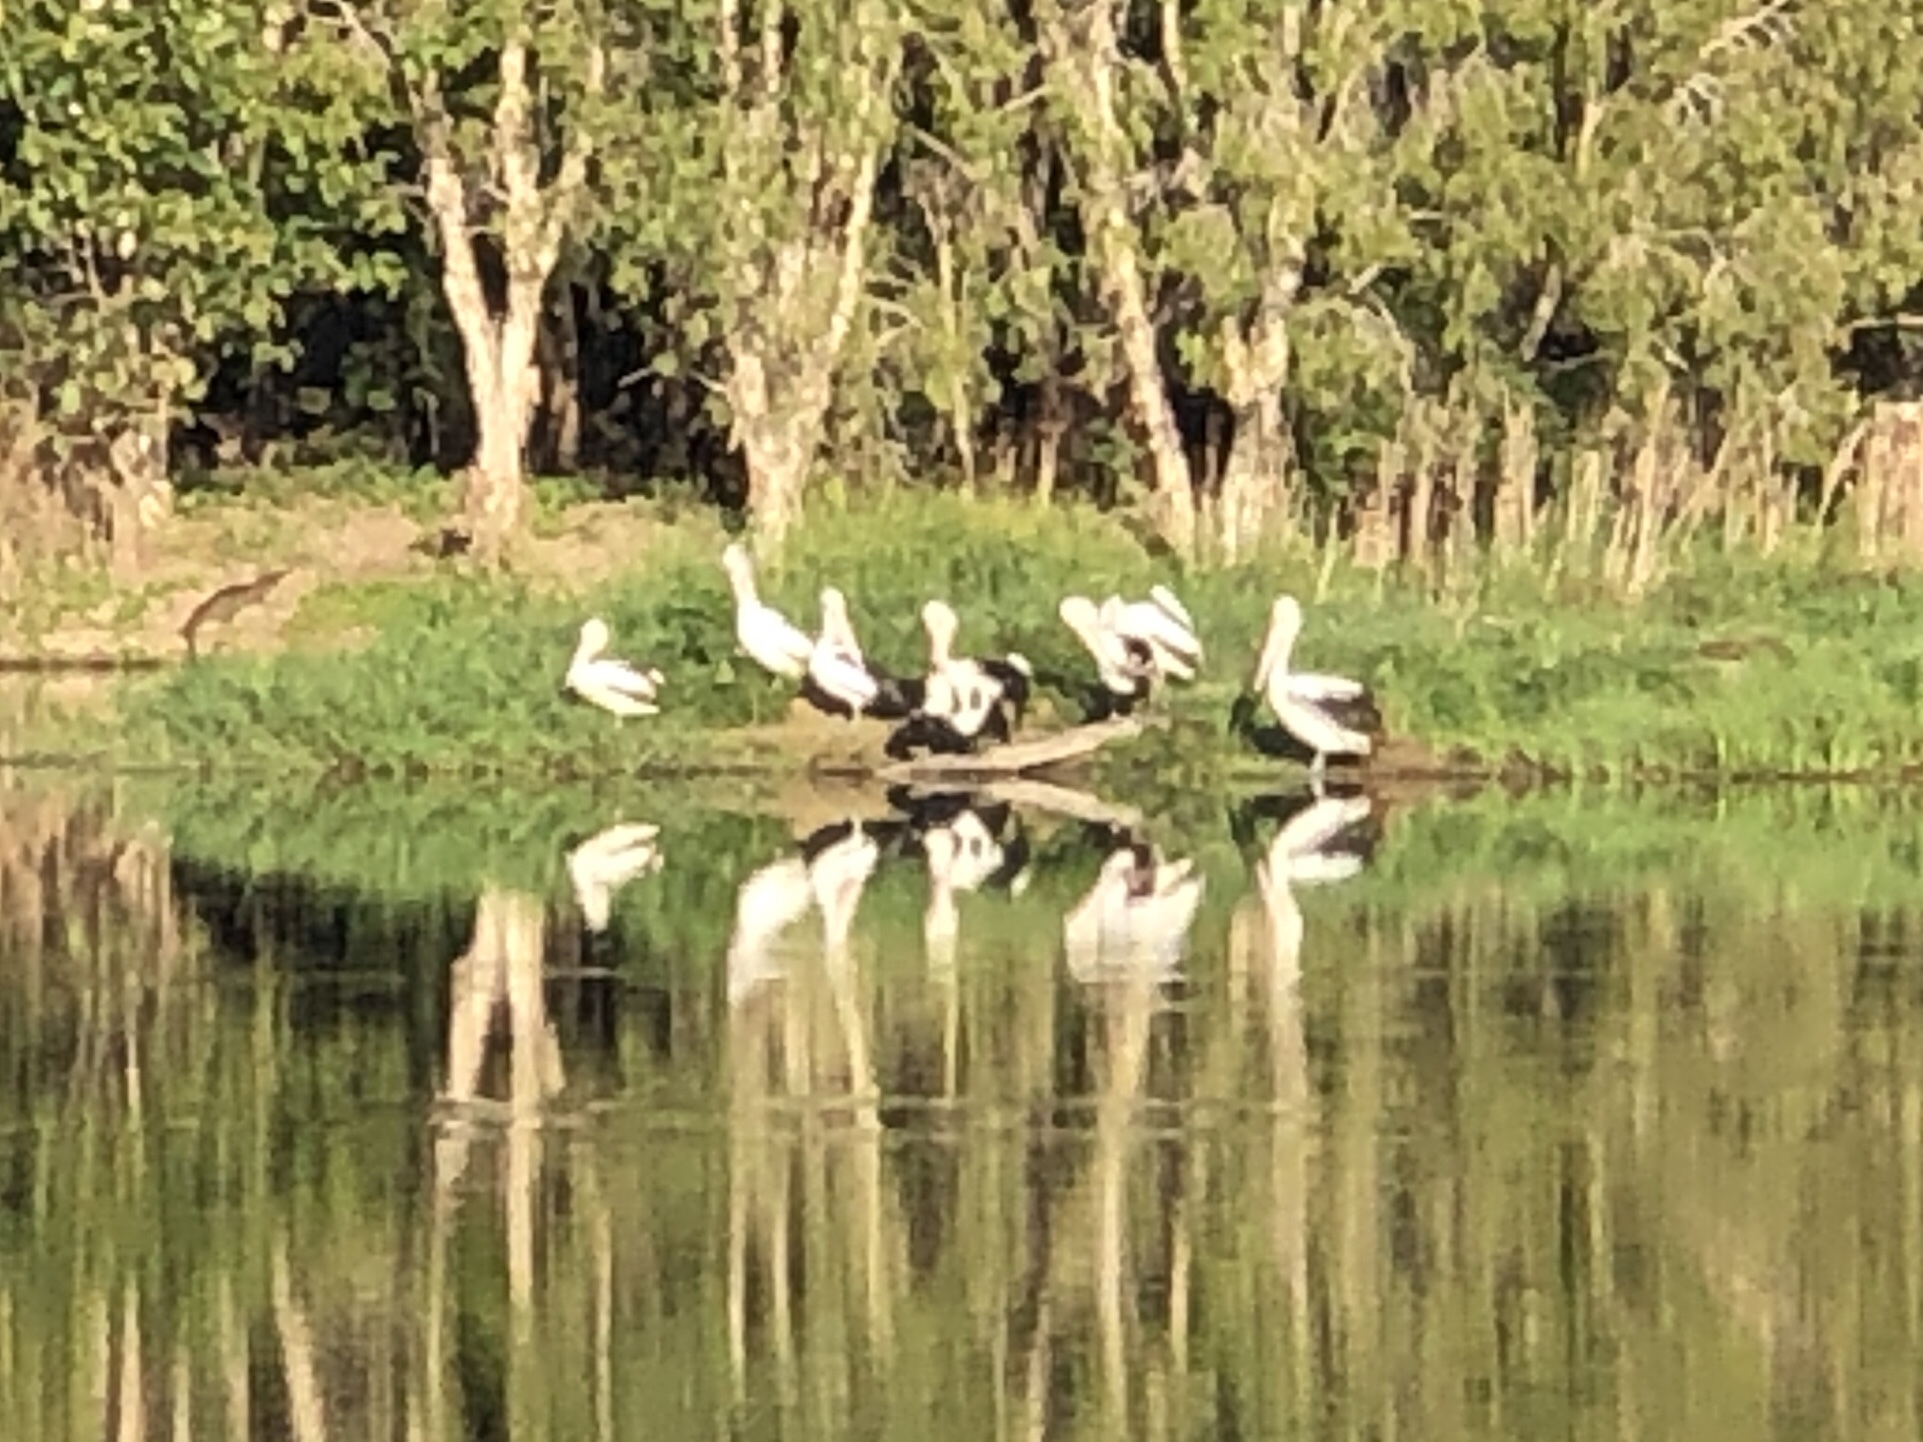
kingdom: Animalia
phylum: Chordata
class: Aves
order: Pelecaniformes
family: Pelecanidae
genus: Pelecanus
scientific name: Pelecanus conspicillatus
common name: Australian pelican
